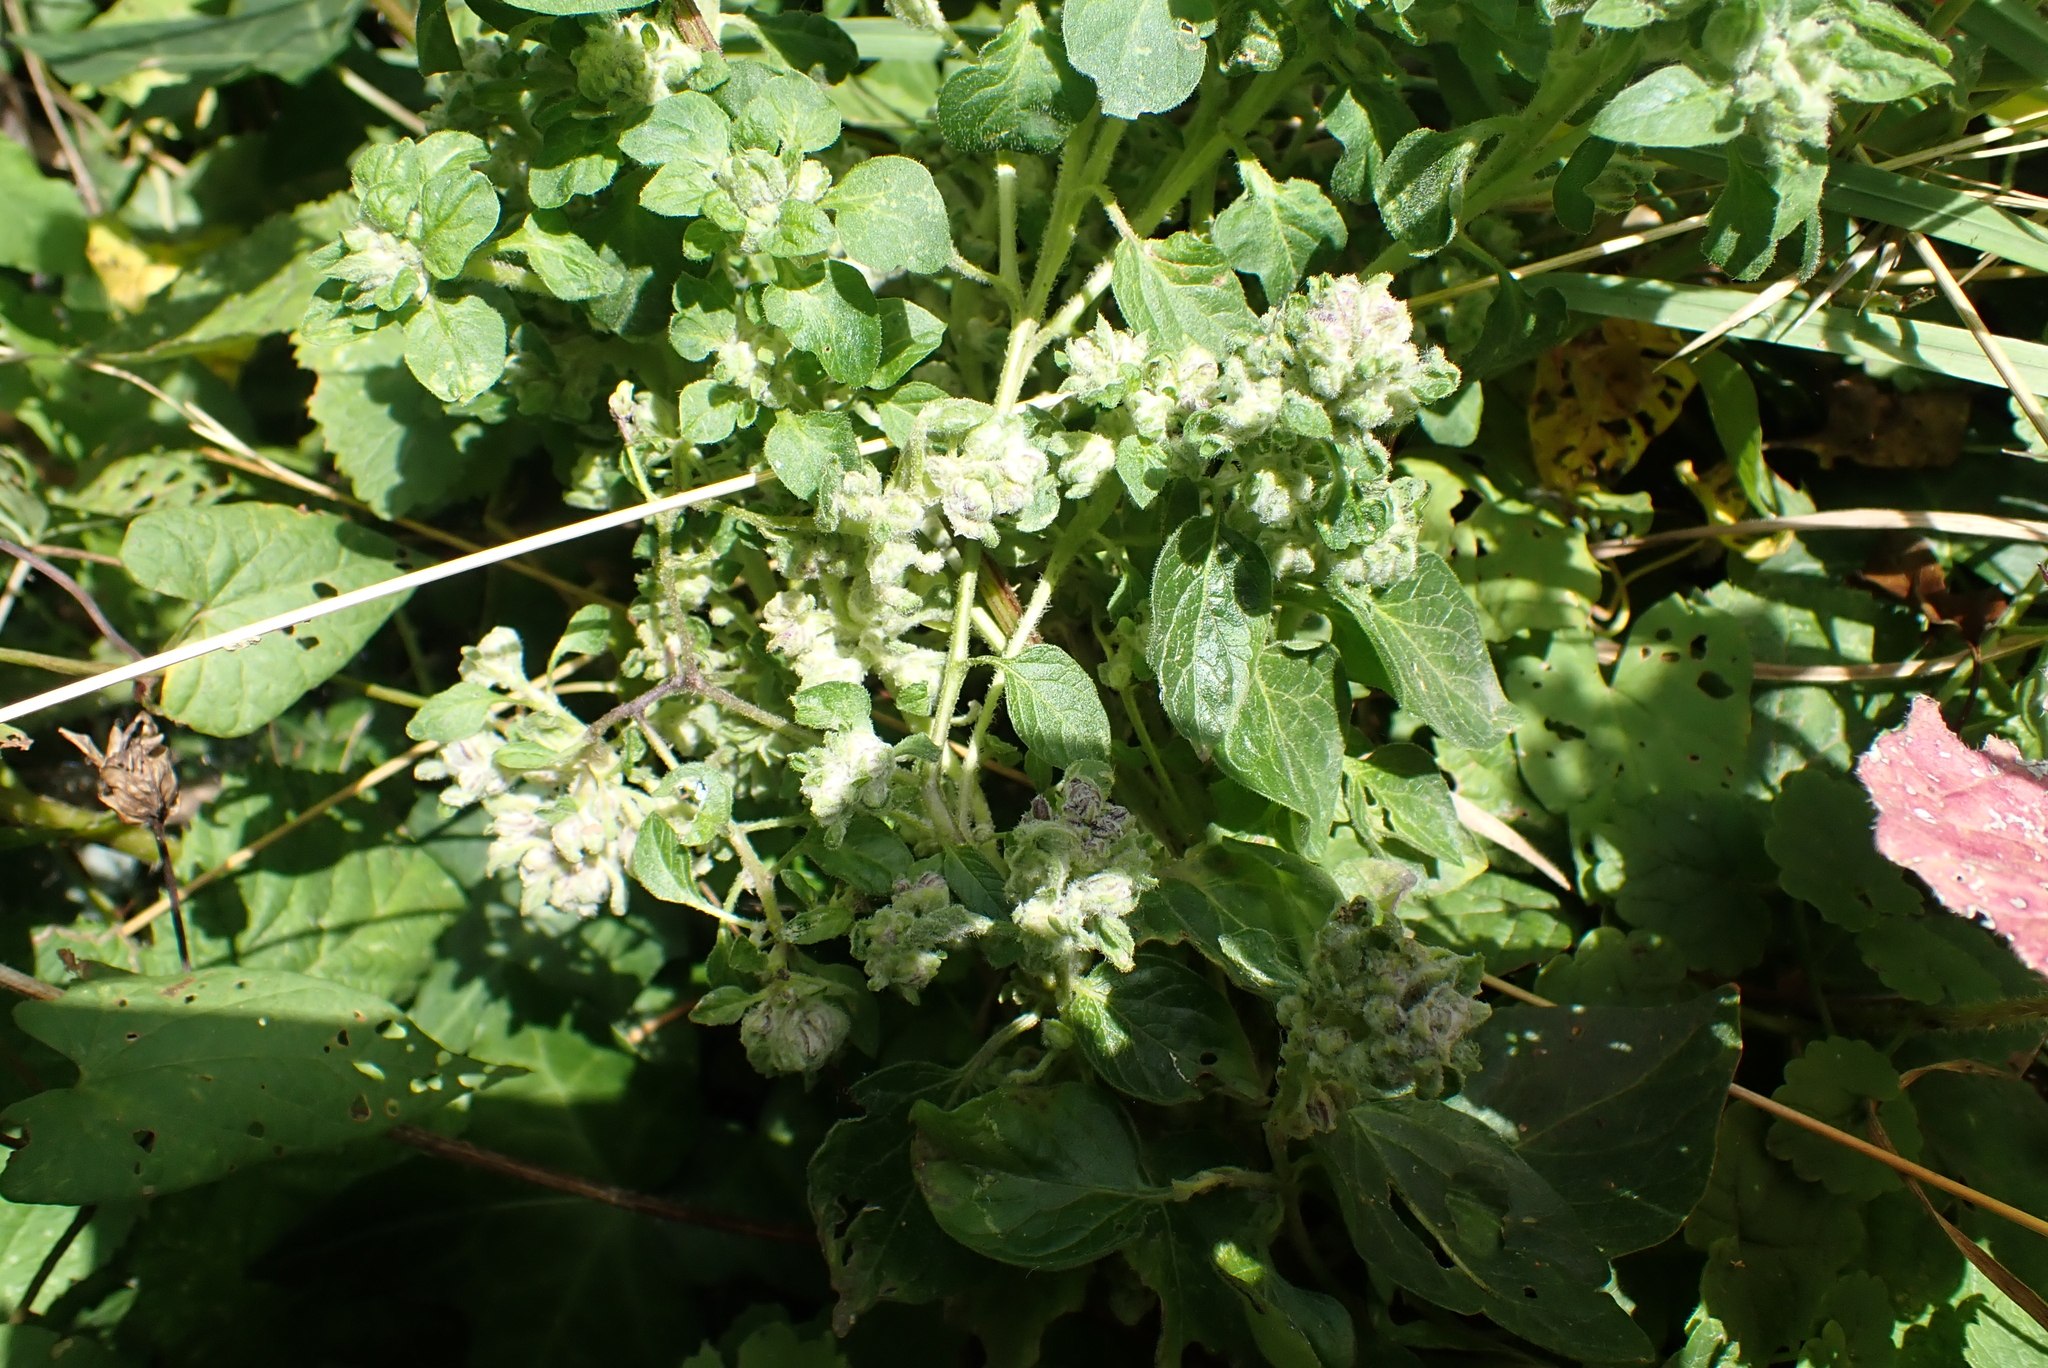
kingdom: Animalia
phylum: Arthropoda
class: Arachnida
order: Trombidiformes
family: Eriophyidae
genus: Aceria
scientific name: Aceria labiatiflorae
